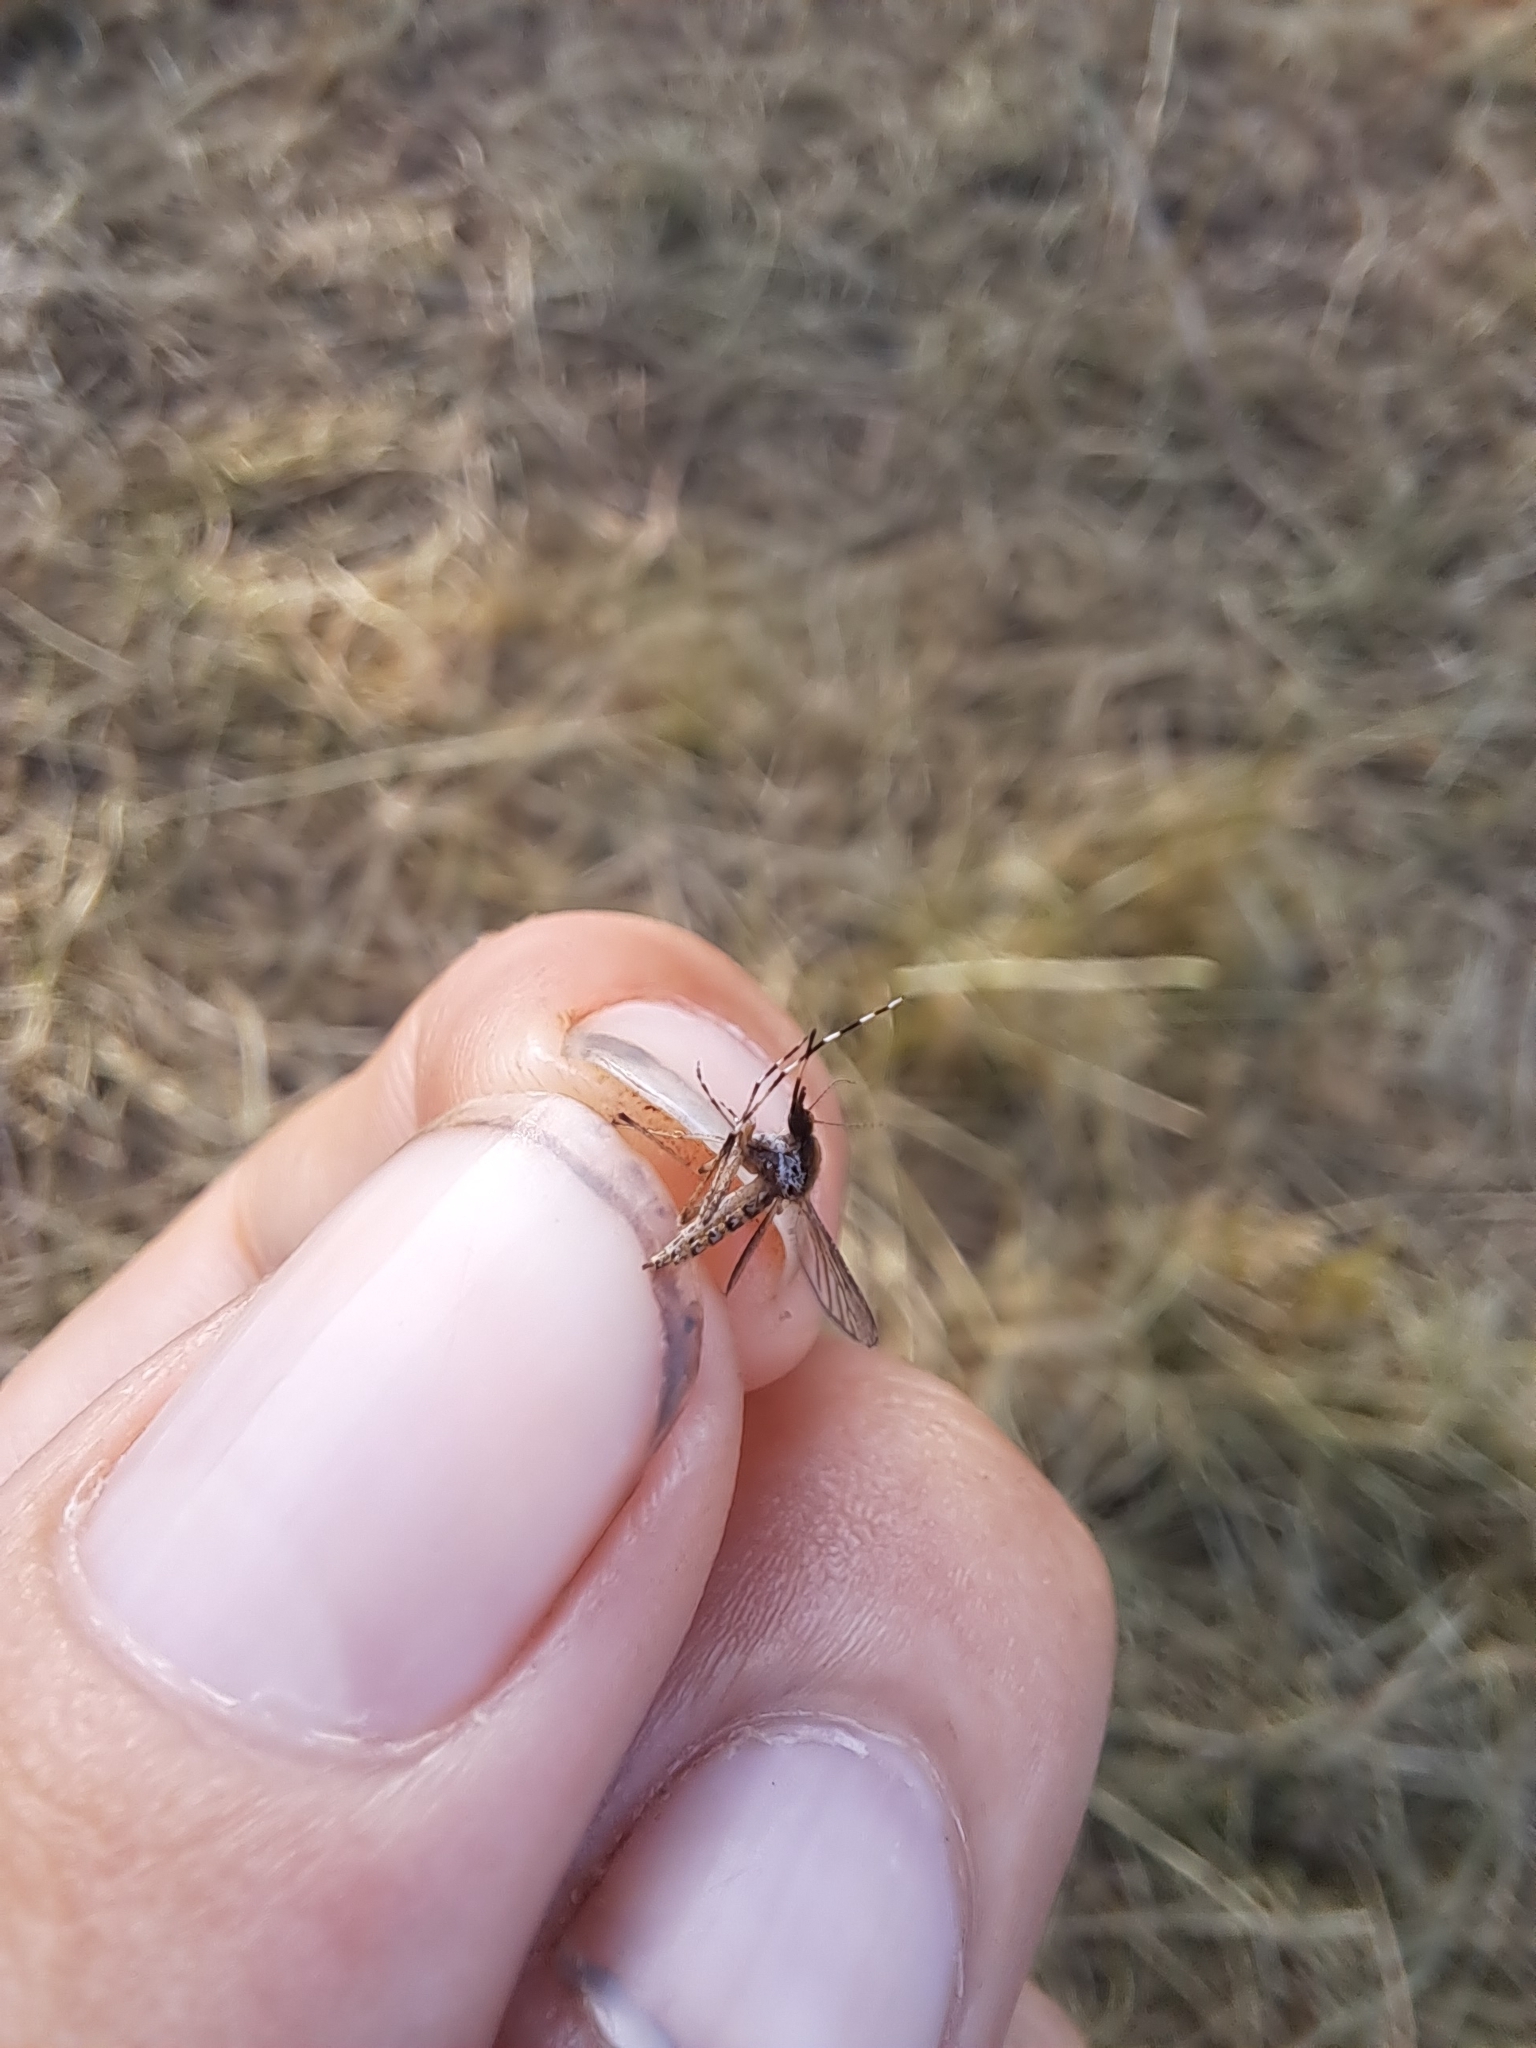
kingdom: Animalia
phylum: Arthropoda
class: Insecta
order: Diptera
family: Culicidae
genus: Aedes
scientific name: Aedes sollicitans
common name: Saltmarsh mosquito
